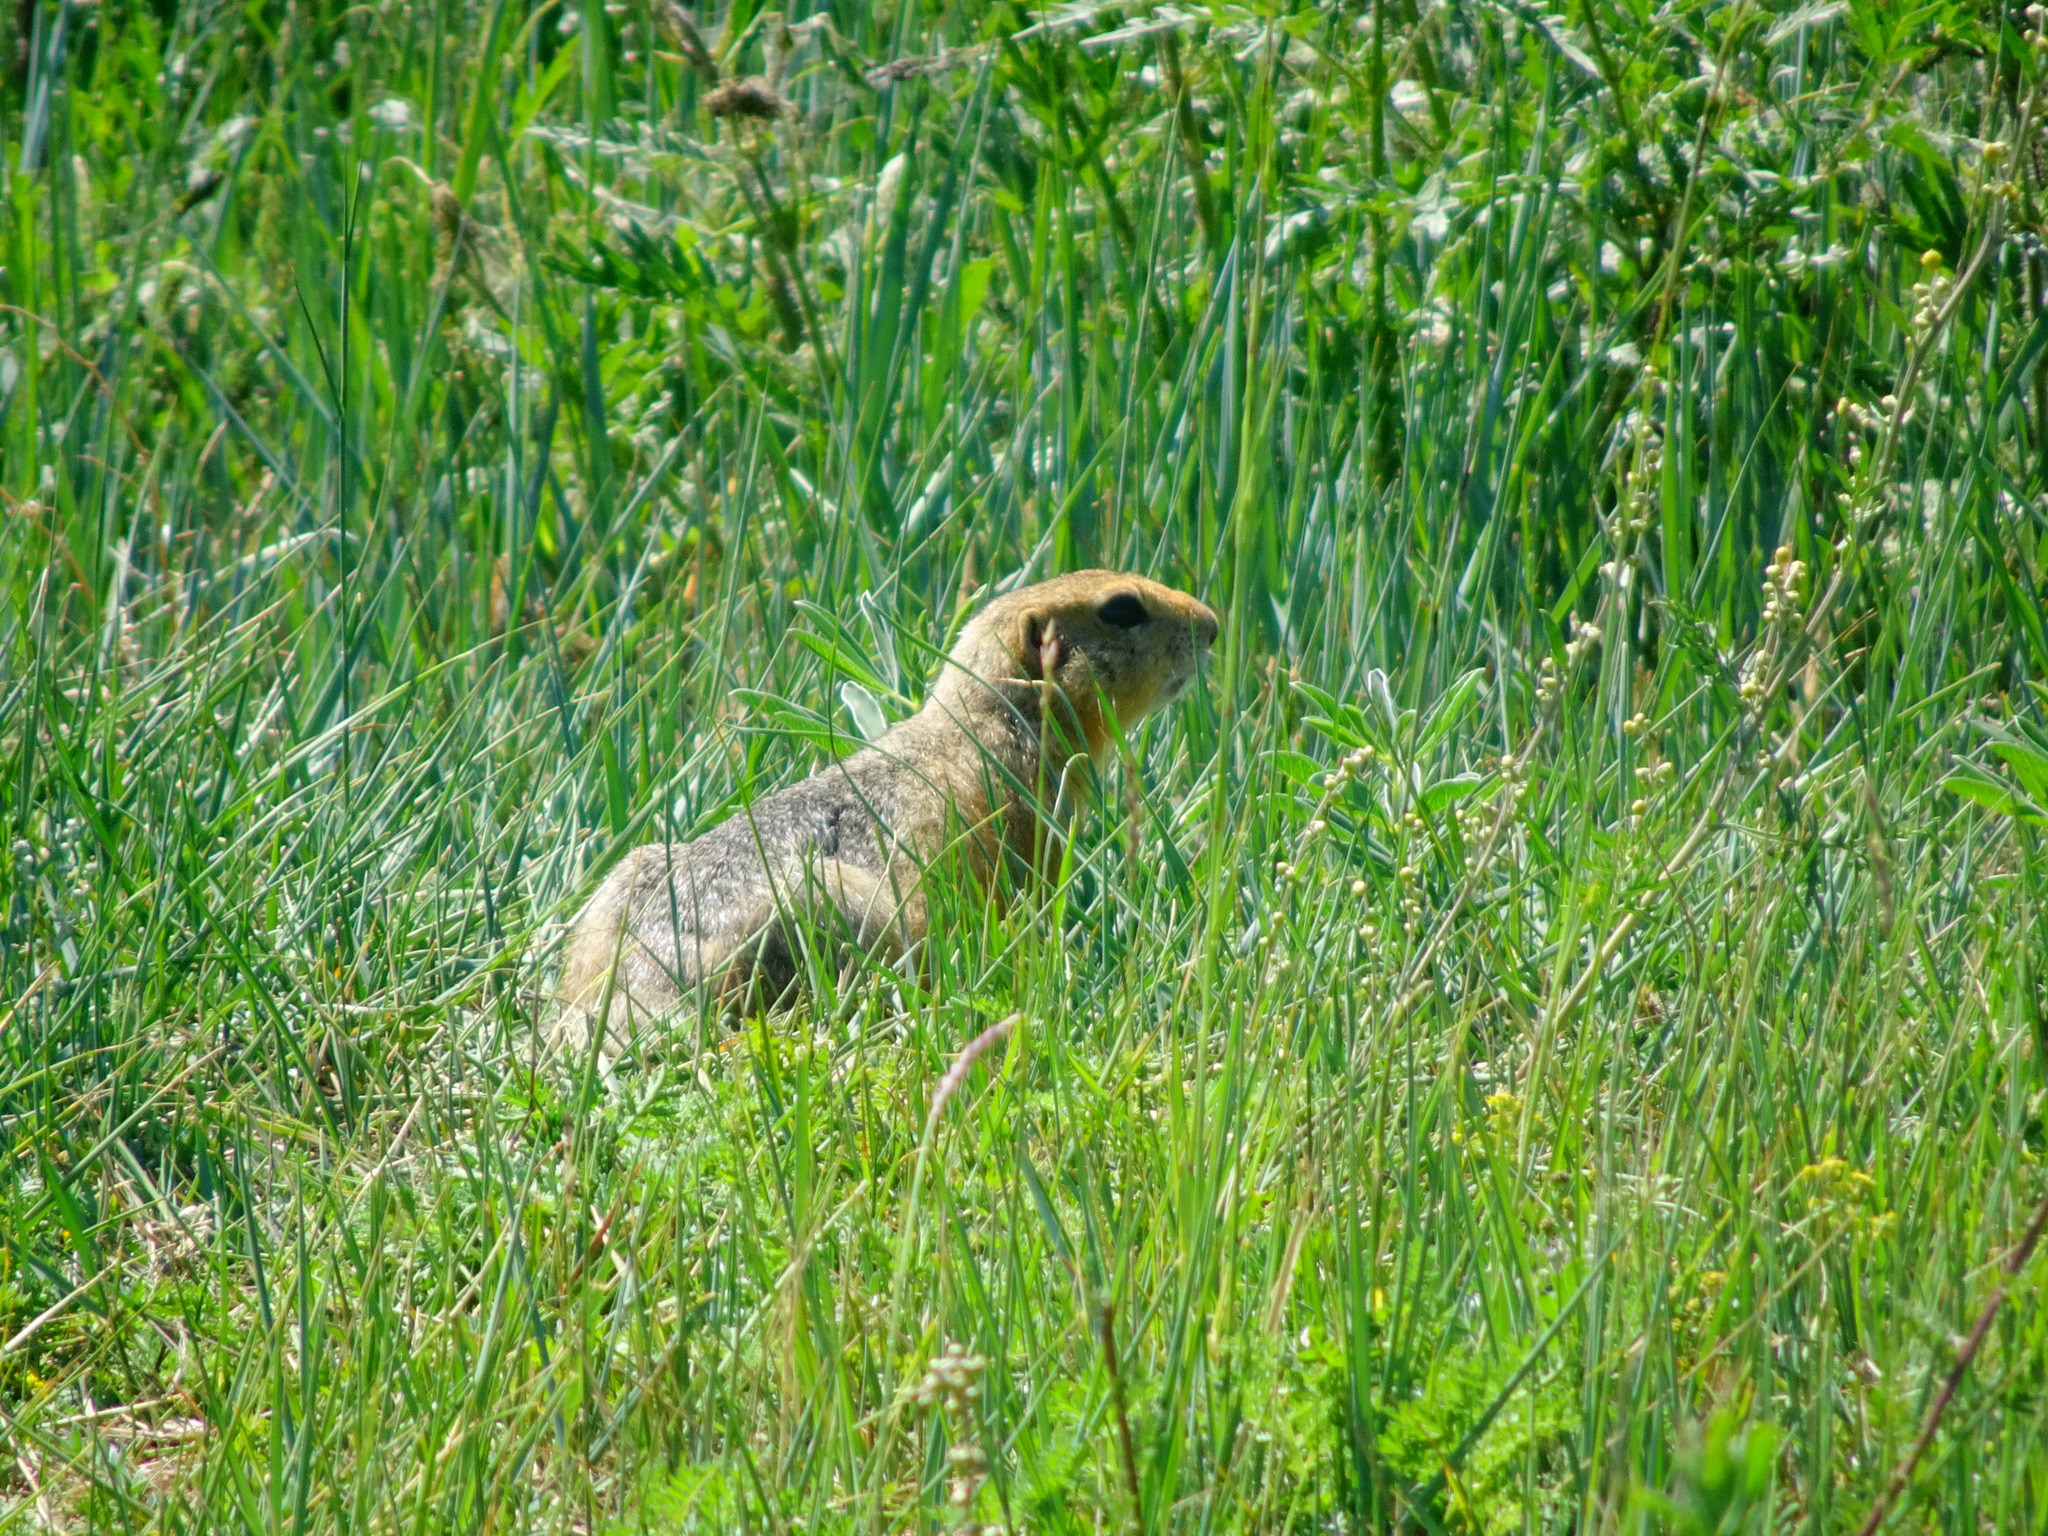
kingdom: Animalia
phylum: Chordata
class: Mammalia
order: Rodentia
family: Sciuridae
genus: Urocitellus
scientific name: Urocitellus undulatus
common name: Long-tailed ground squirrel
